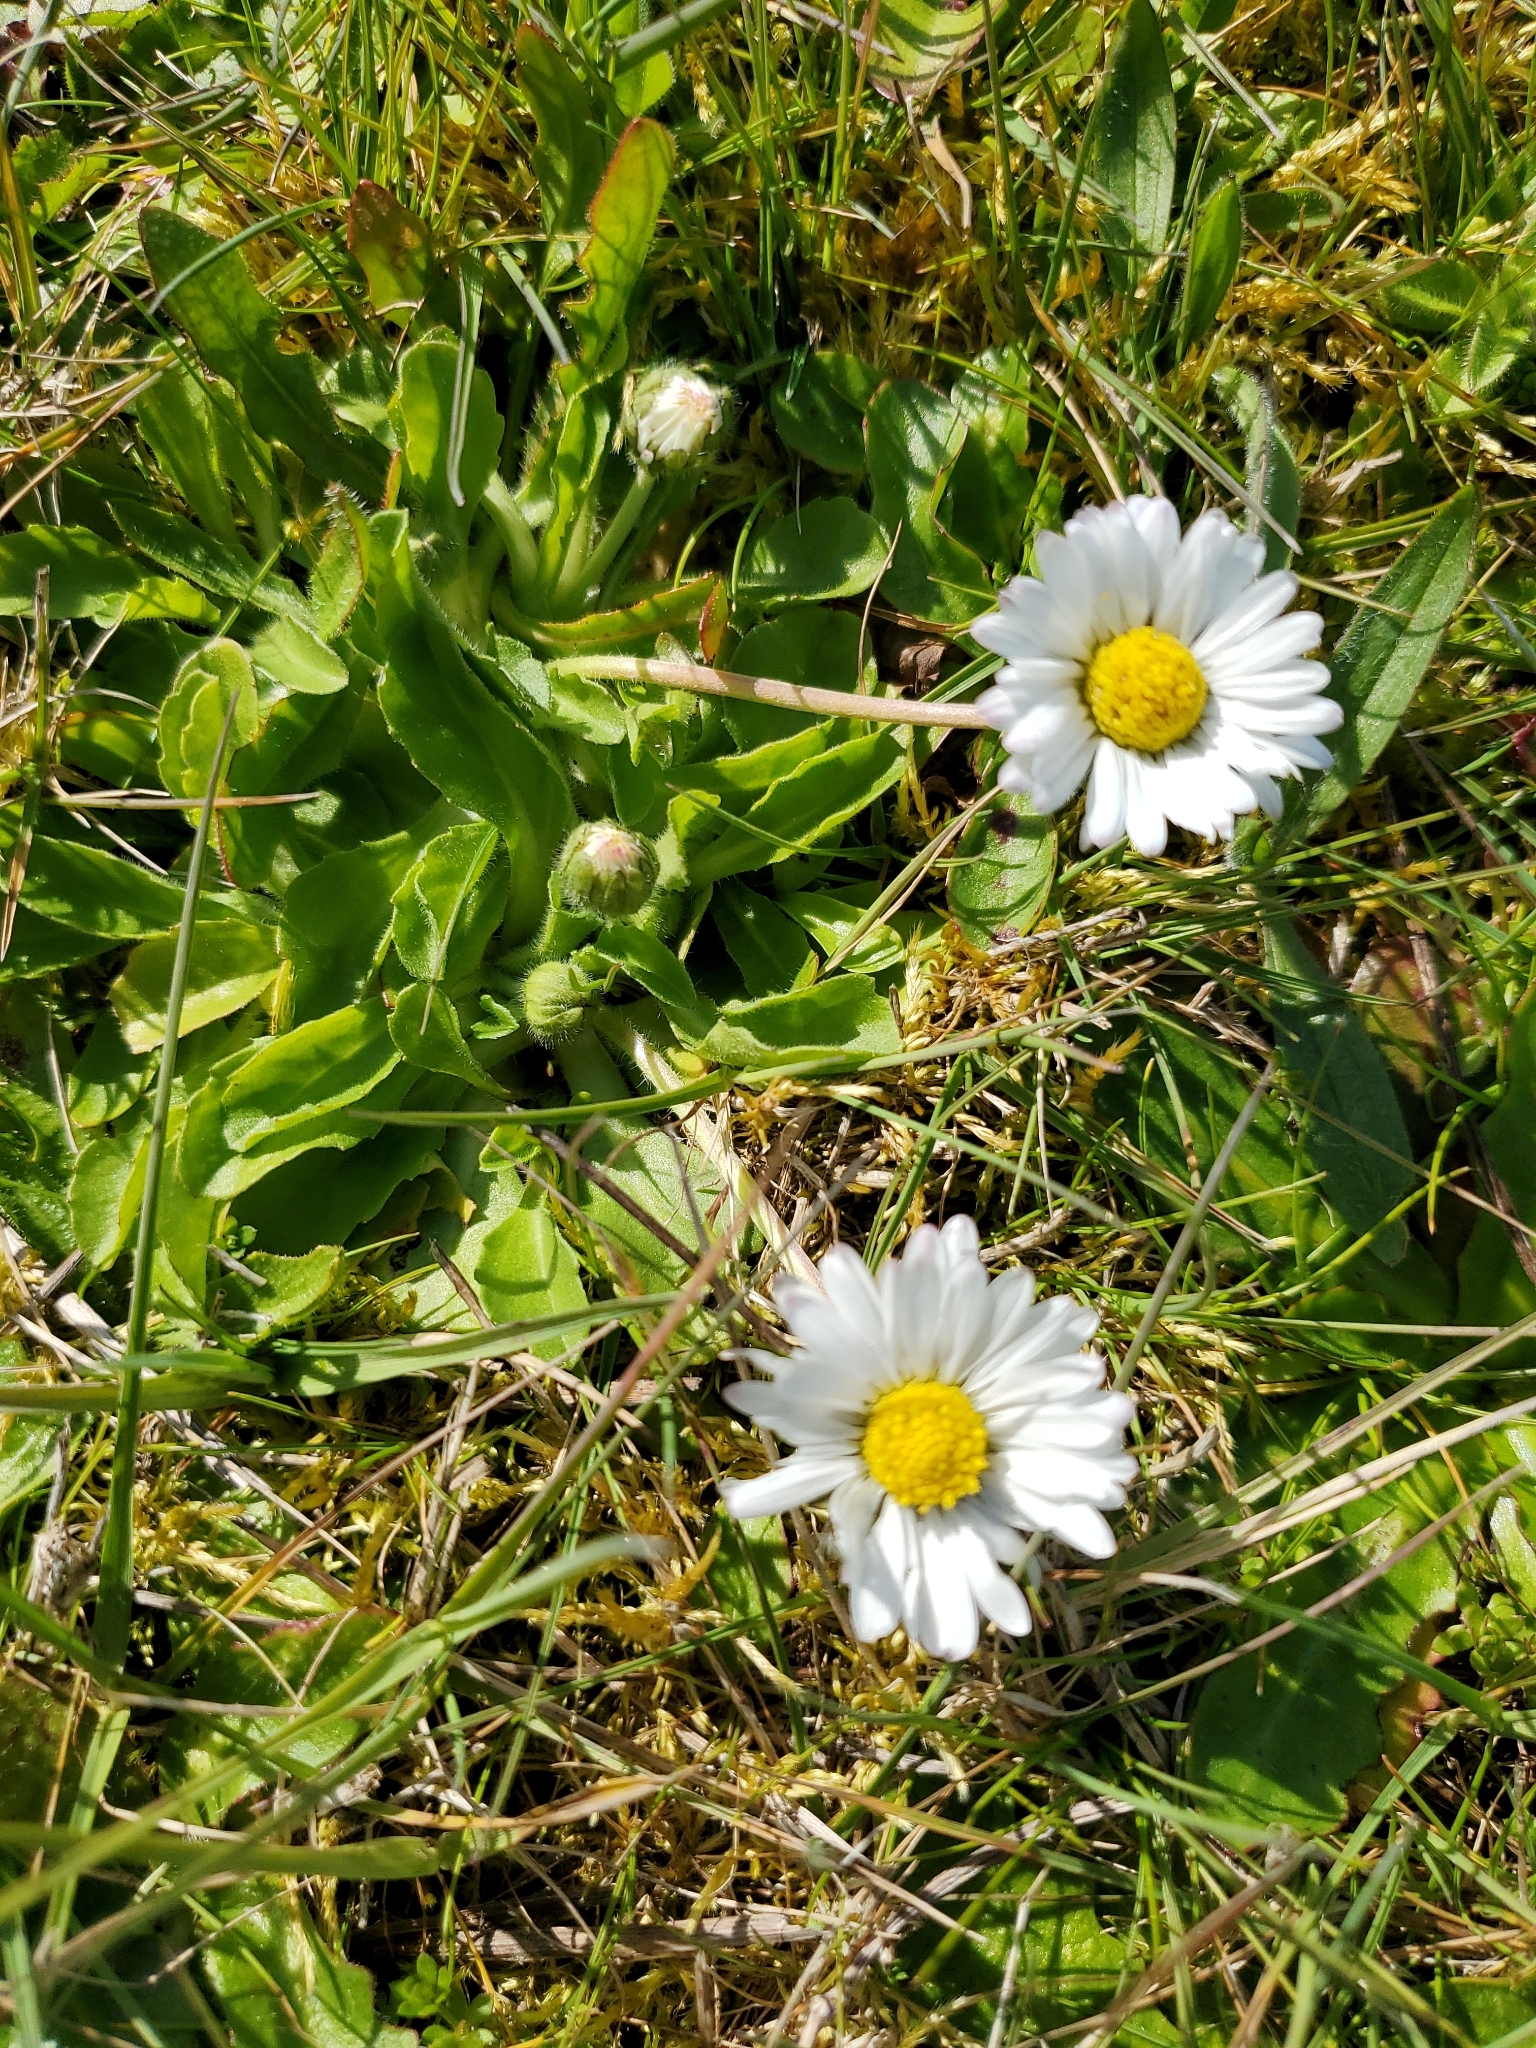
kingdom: Plantae
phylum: Tracheophyta
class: Magnoliopsida
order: Asterales
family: Asteraceae
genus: Bellis
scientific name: Bellis perennis
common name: Lawndaisy
